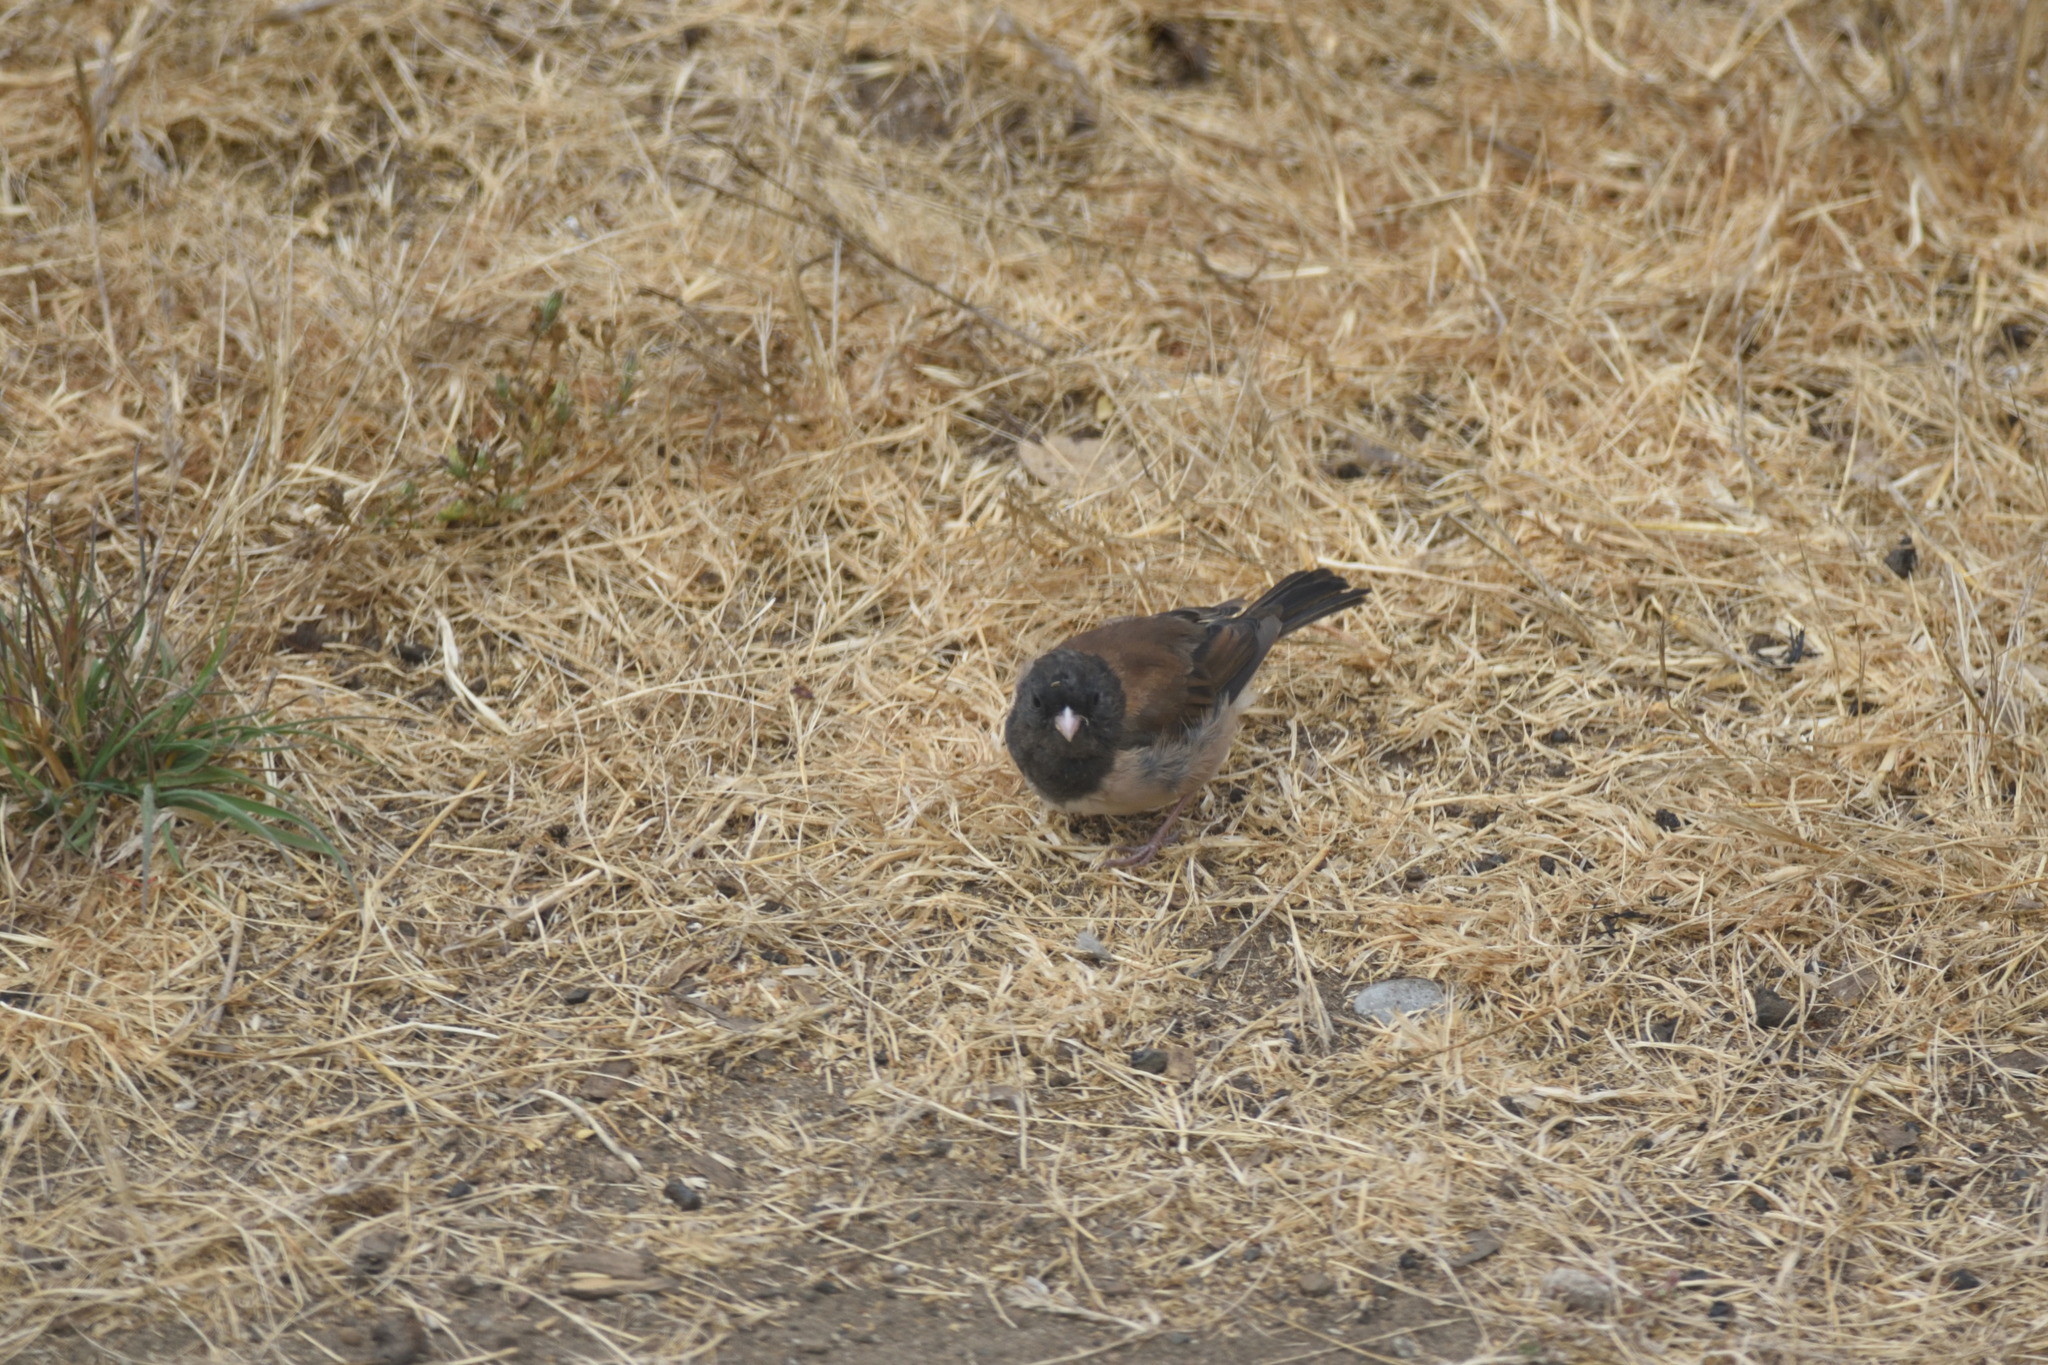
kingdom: Animalia
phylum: Chordata
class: Aves
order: Passeriformes
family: Passerellidae
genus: Junco
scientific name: Junco hyemalis
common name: Dark-eyed junco
